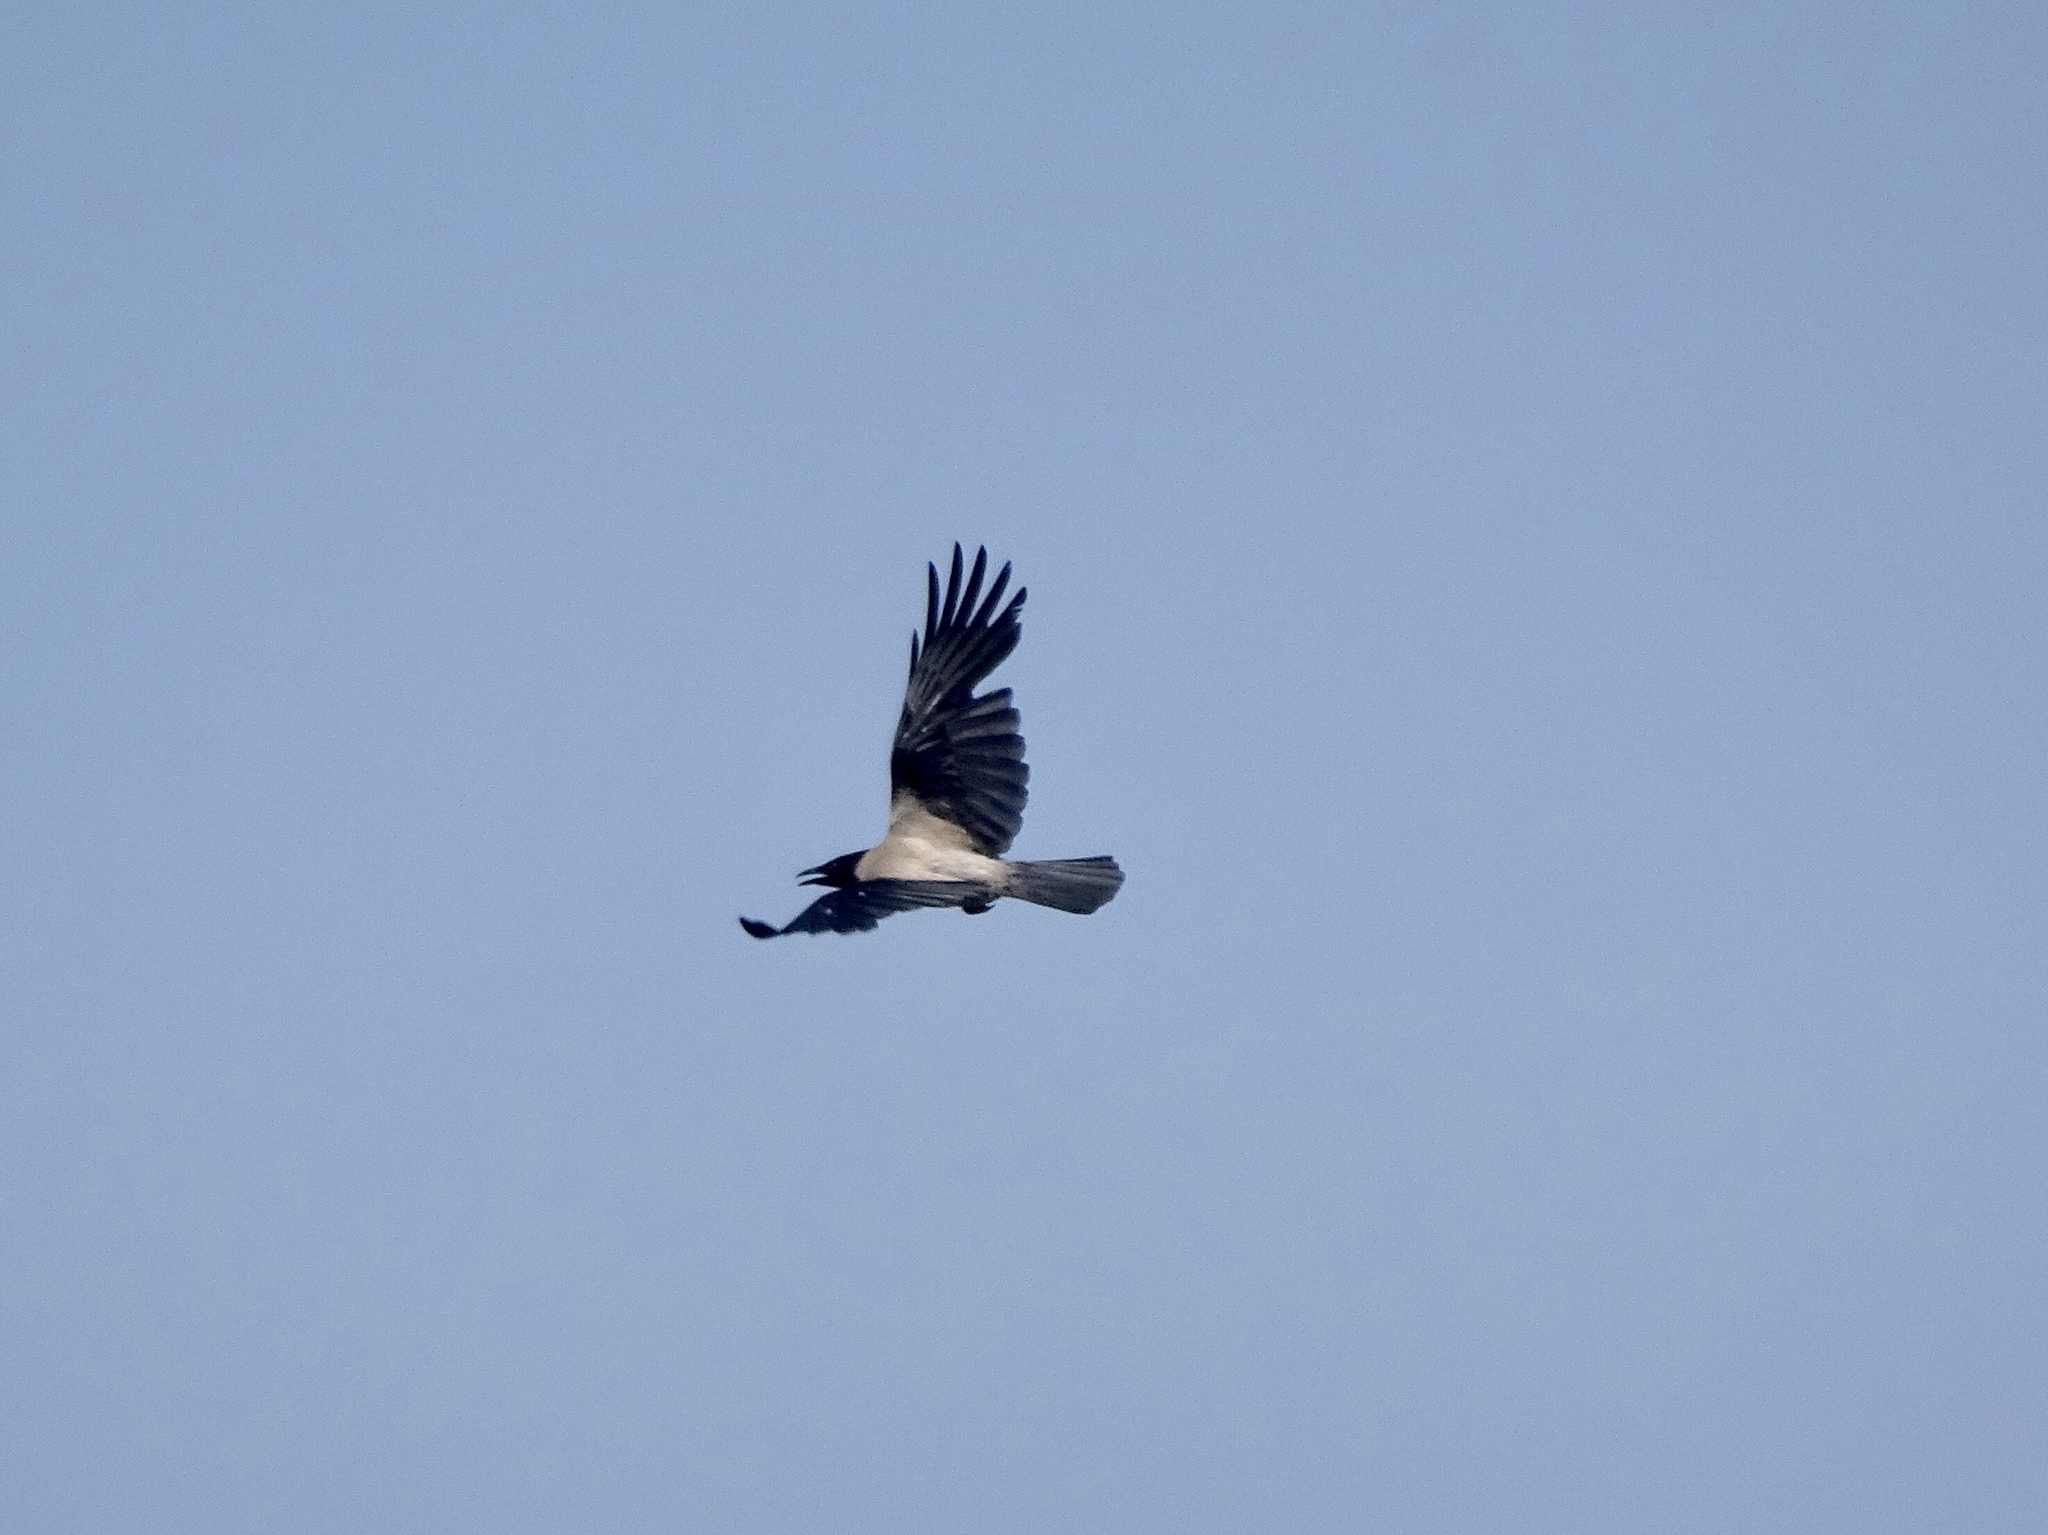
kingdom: Animalia
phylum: Chordata
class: Aves
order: Passeriformes
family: Corvidae
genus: Corvus
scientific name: Corvus cornix
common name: Hooded crow
